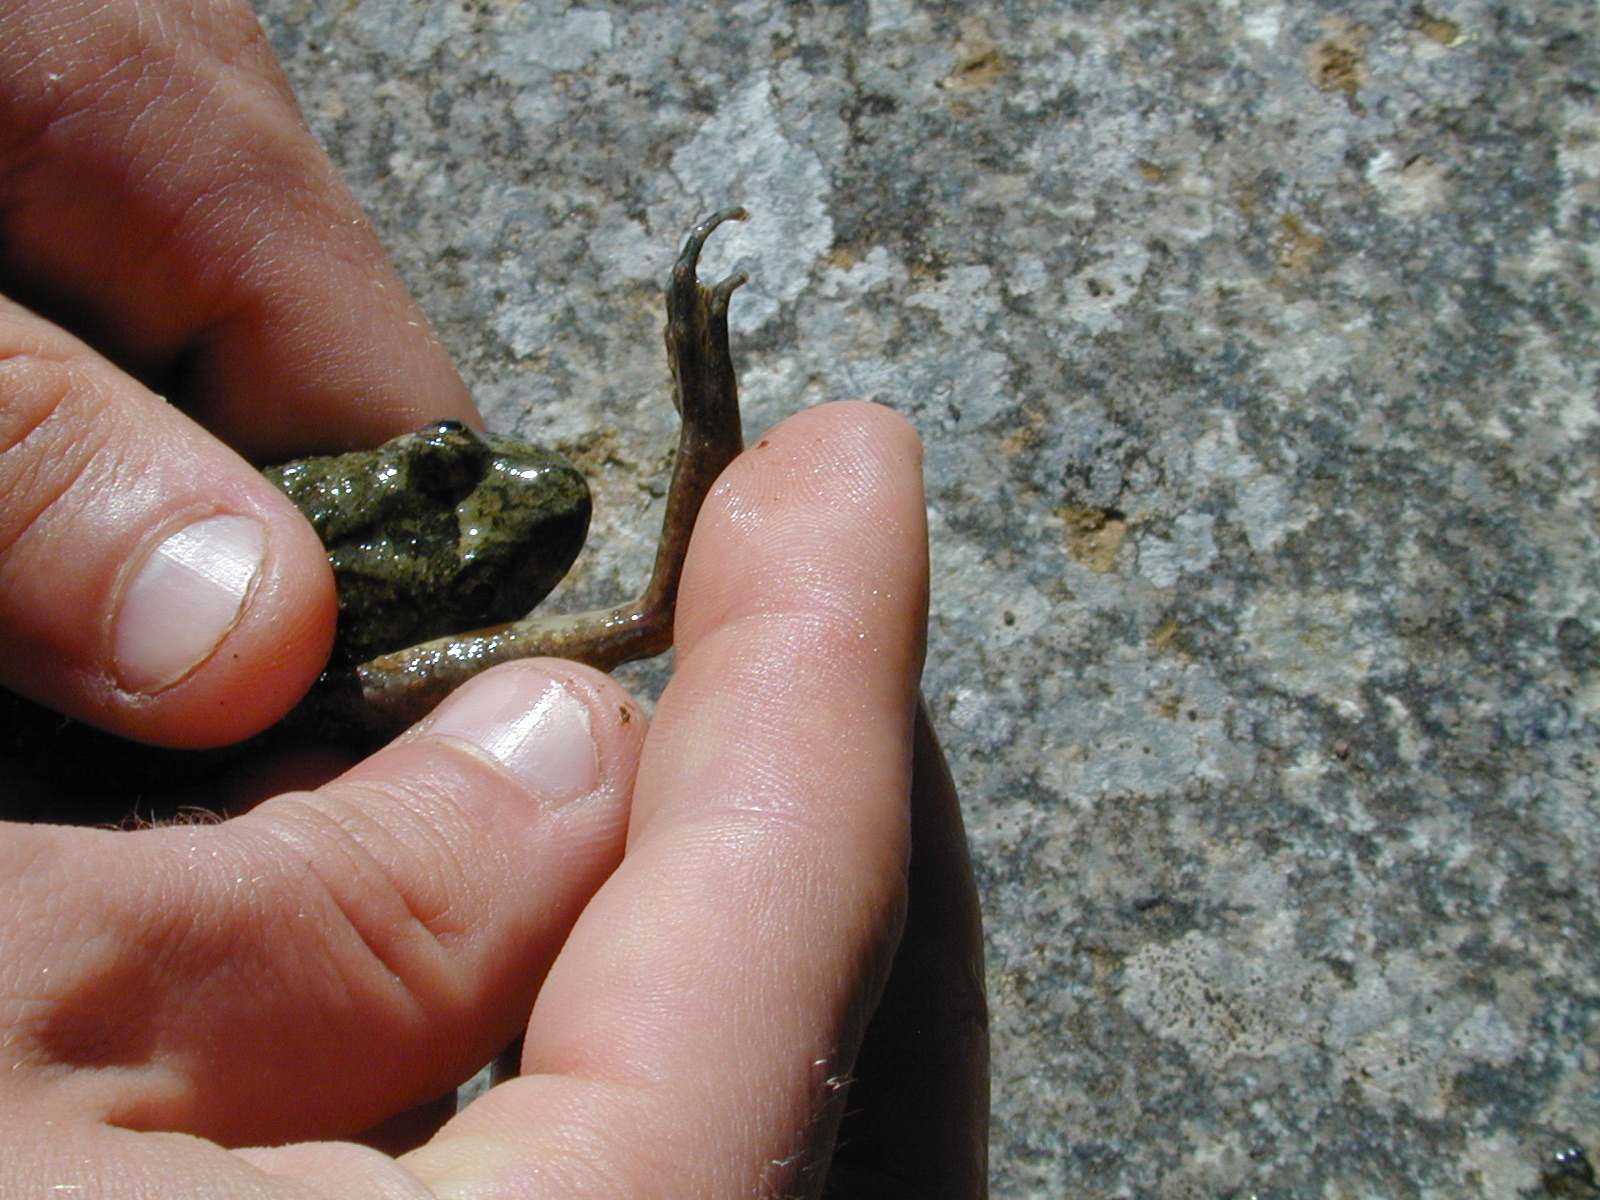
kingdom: Animalia
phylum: Chordata
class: Amphibia
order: Anura
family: Alytidae
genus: Discoglossus
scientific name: Discoglossus montalentii
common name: Corsica painted frog
